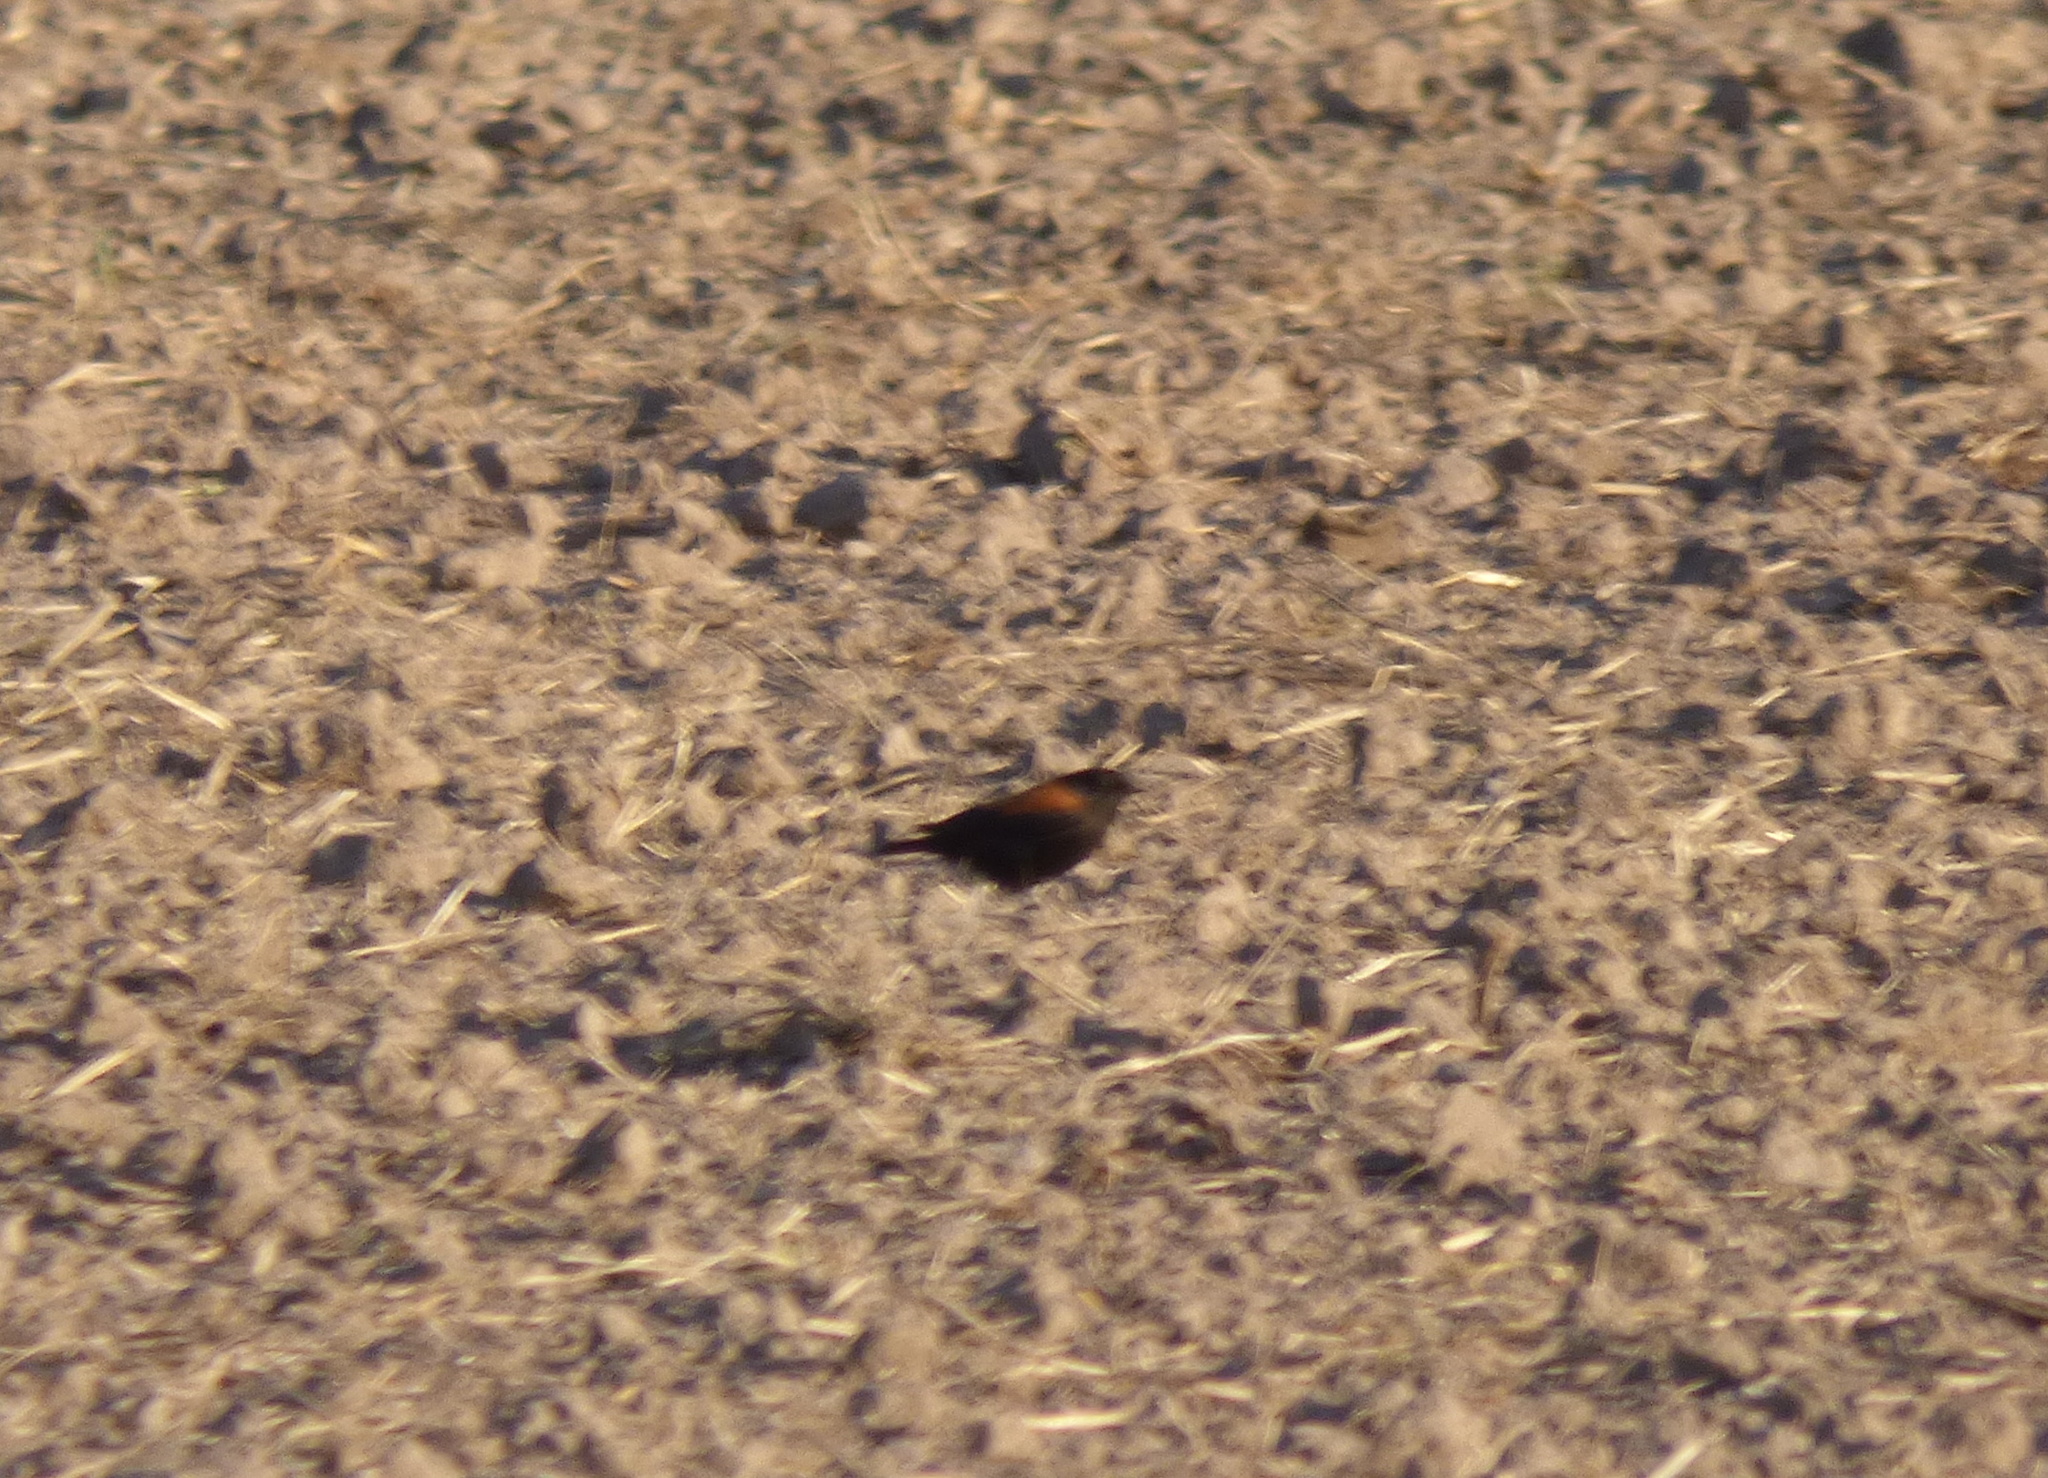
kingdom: Animalia
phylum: Chordata
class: Aves
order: Passeriformes
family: Tyrannidae
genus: Lessonia
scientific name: Lessonia rufa
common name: Austral negrito
